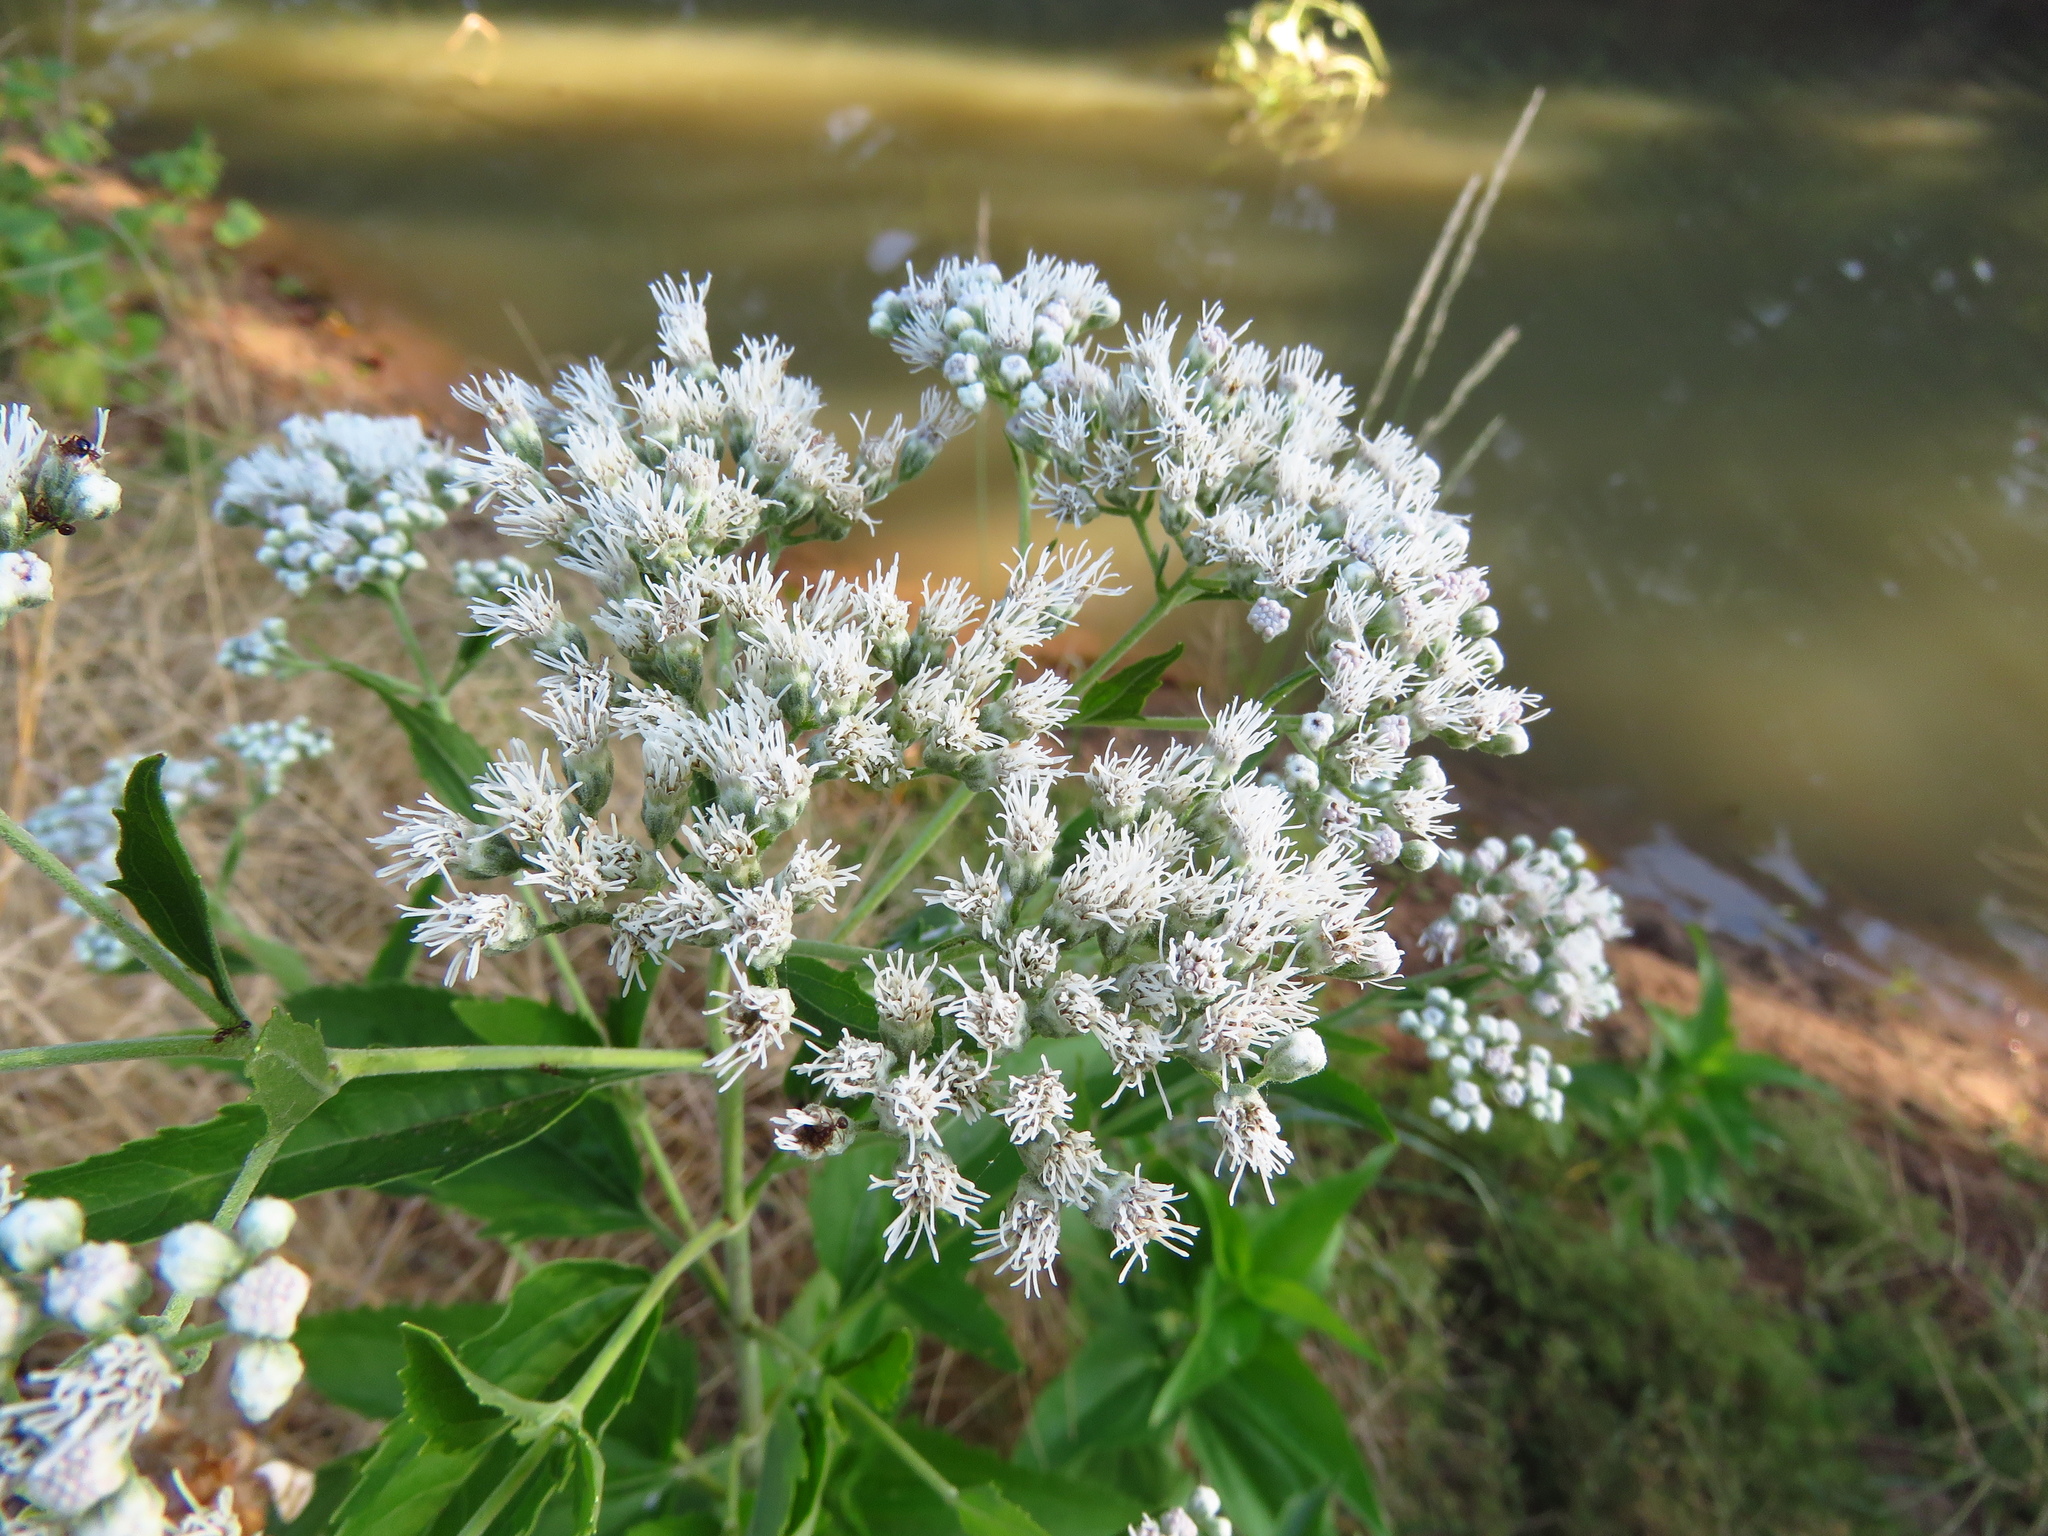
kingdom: Plantae
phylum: Tracheophyta
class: Magnoliopsida
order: Asterales
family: Asteraceae
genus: Eupatorium
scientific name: Eupatorium serotinum
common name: Late boneset
